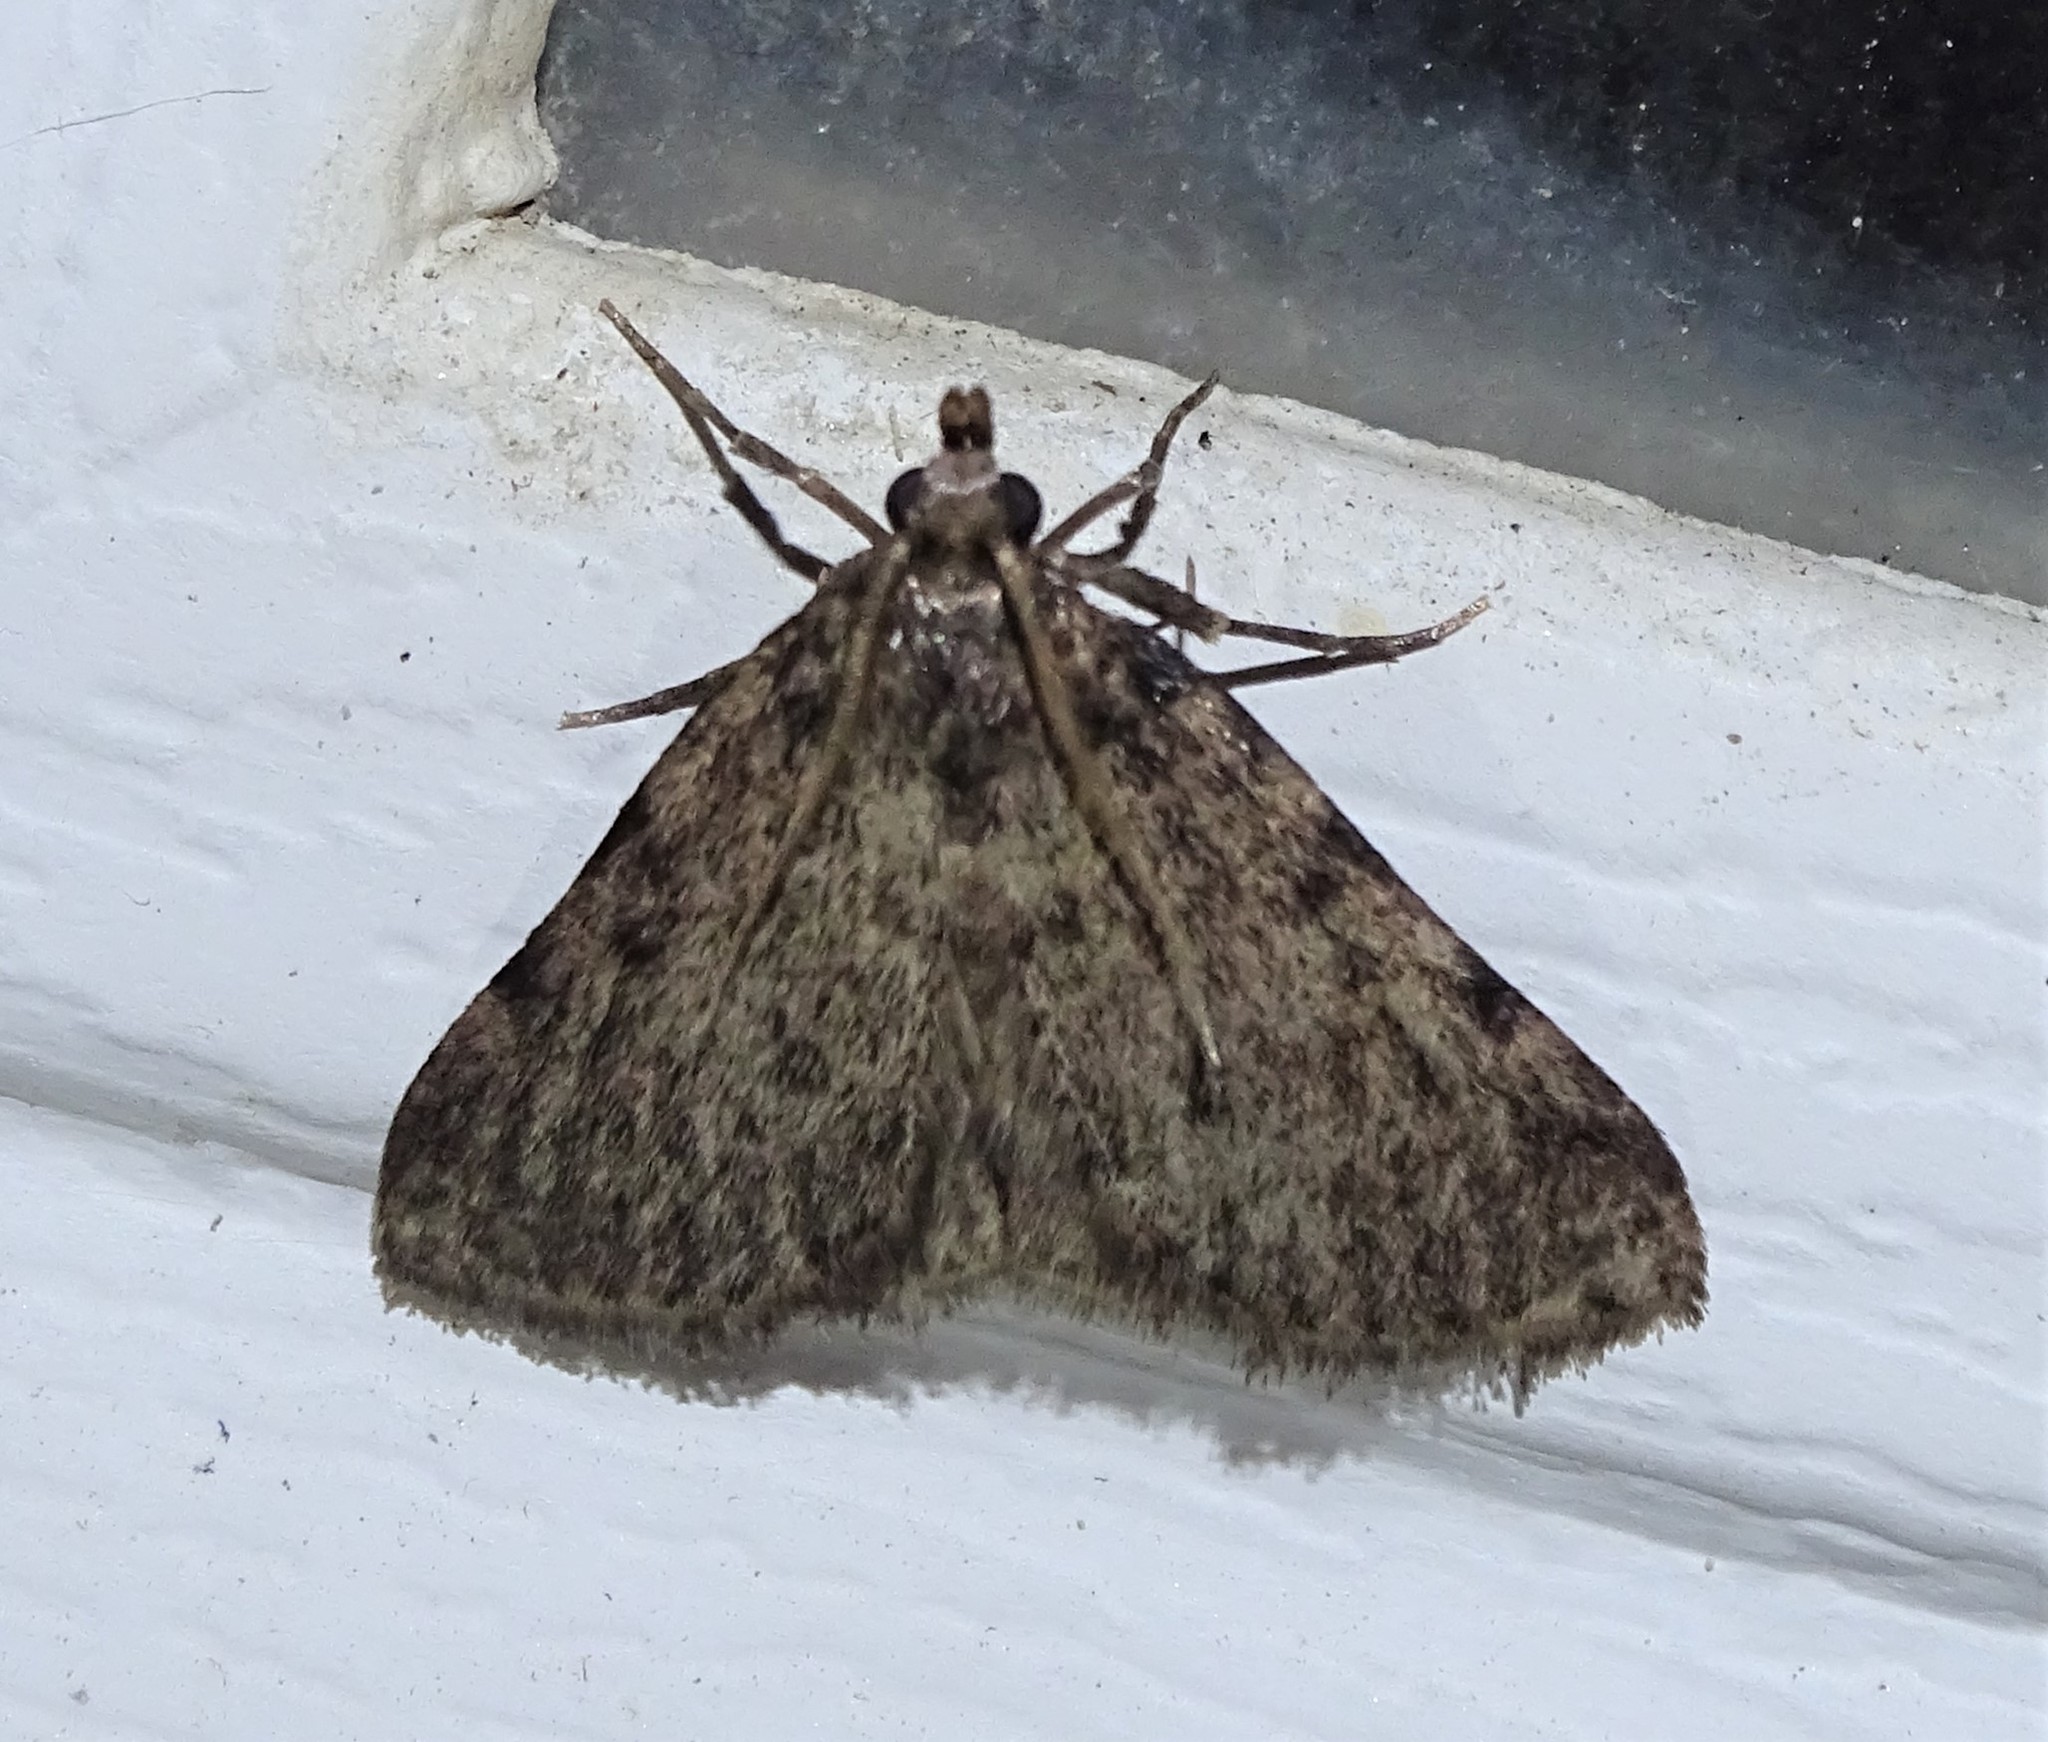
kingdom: Animalia
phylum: Arthropoda
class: Insecta
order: Lepidoptera
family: Pyralidae
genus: Aglossa
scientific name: Aglossa pinguinalis
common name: Large tabby
